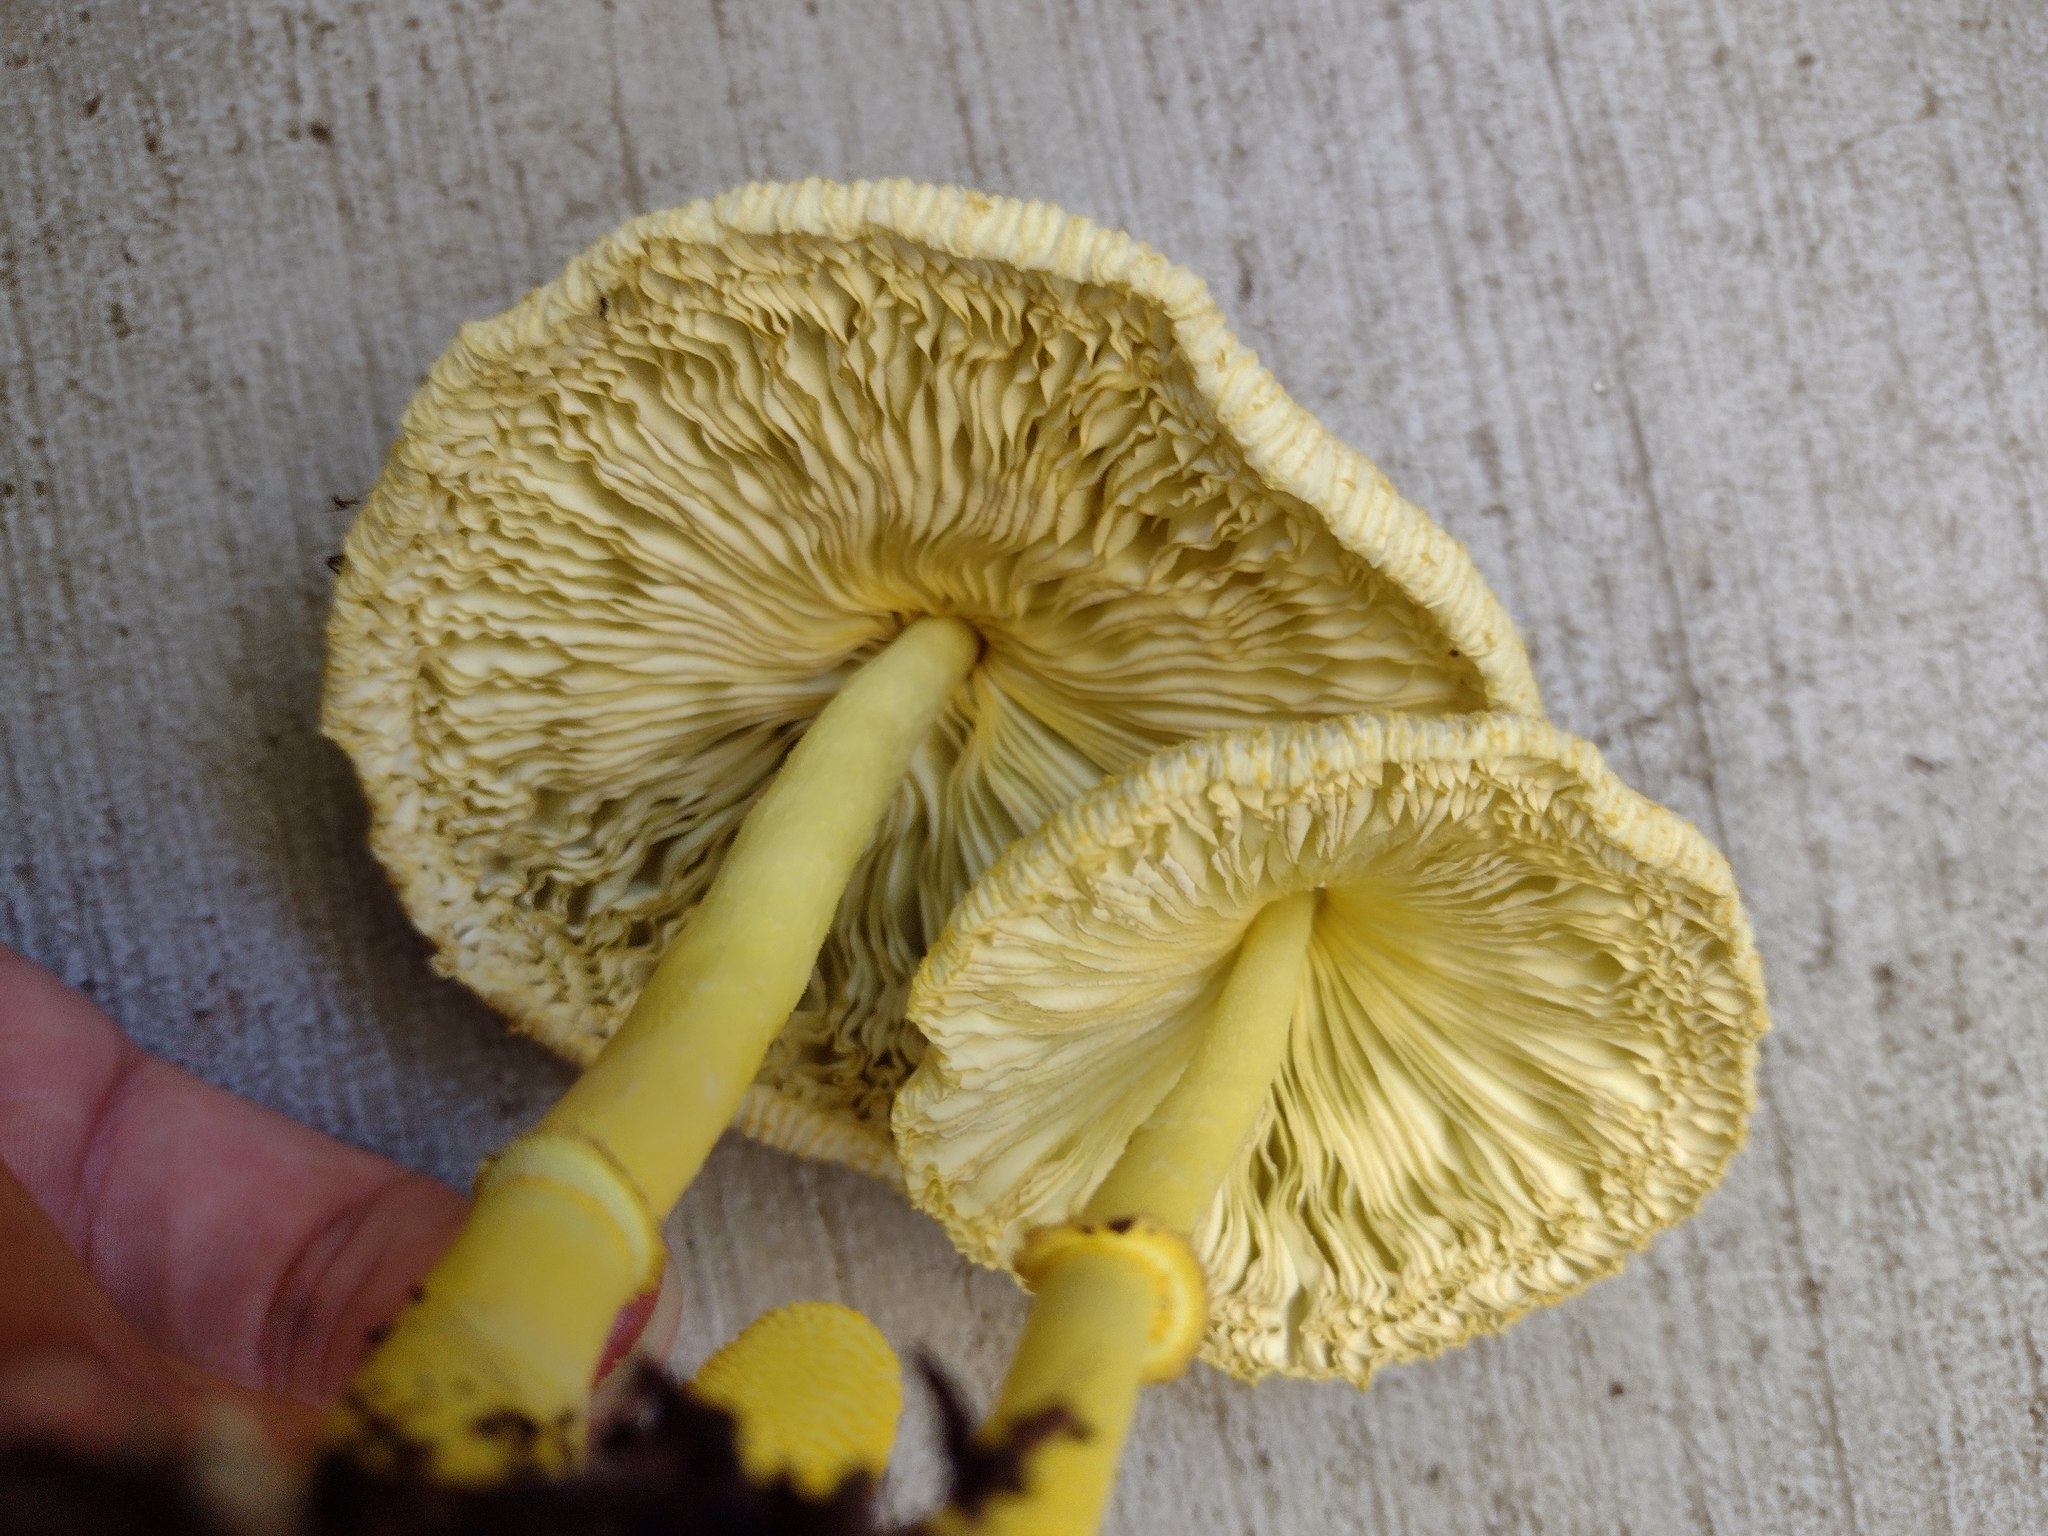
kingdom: Fungi
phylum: Basidiomycota
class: Agaricomycetes
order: Agaricales
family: Agaricaceae
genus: Leucocoprinus
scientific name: Leucocoprinus birnbaumii
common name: Plantpot dapperling
